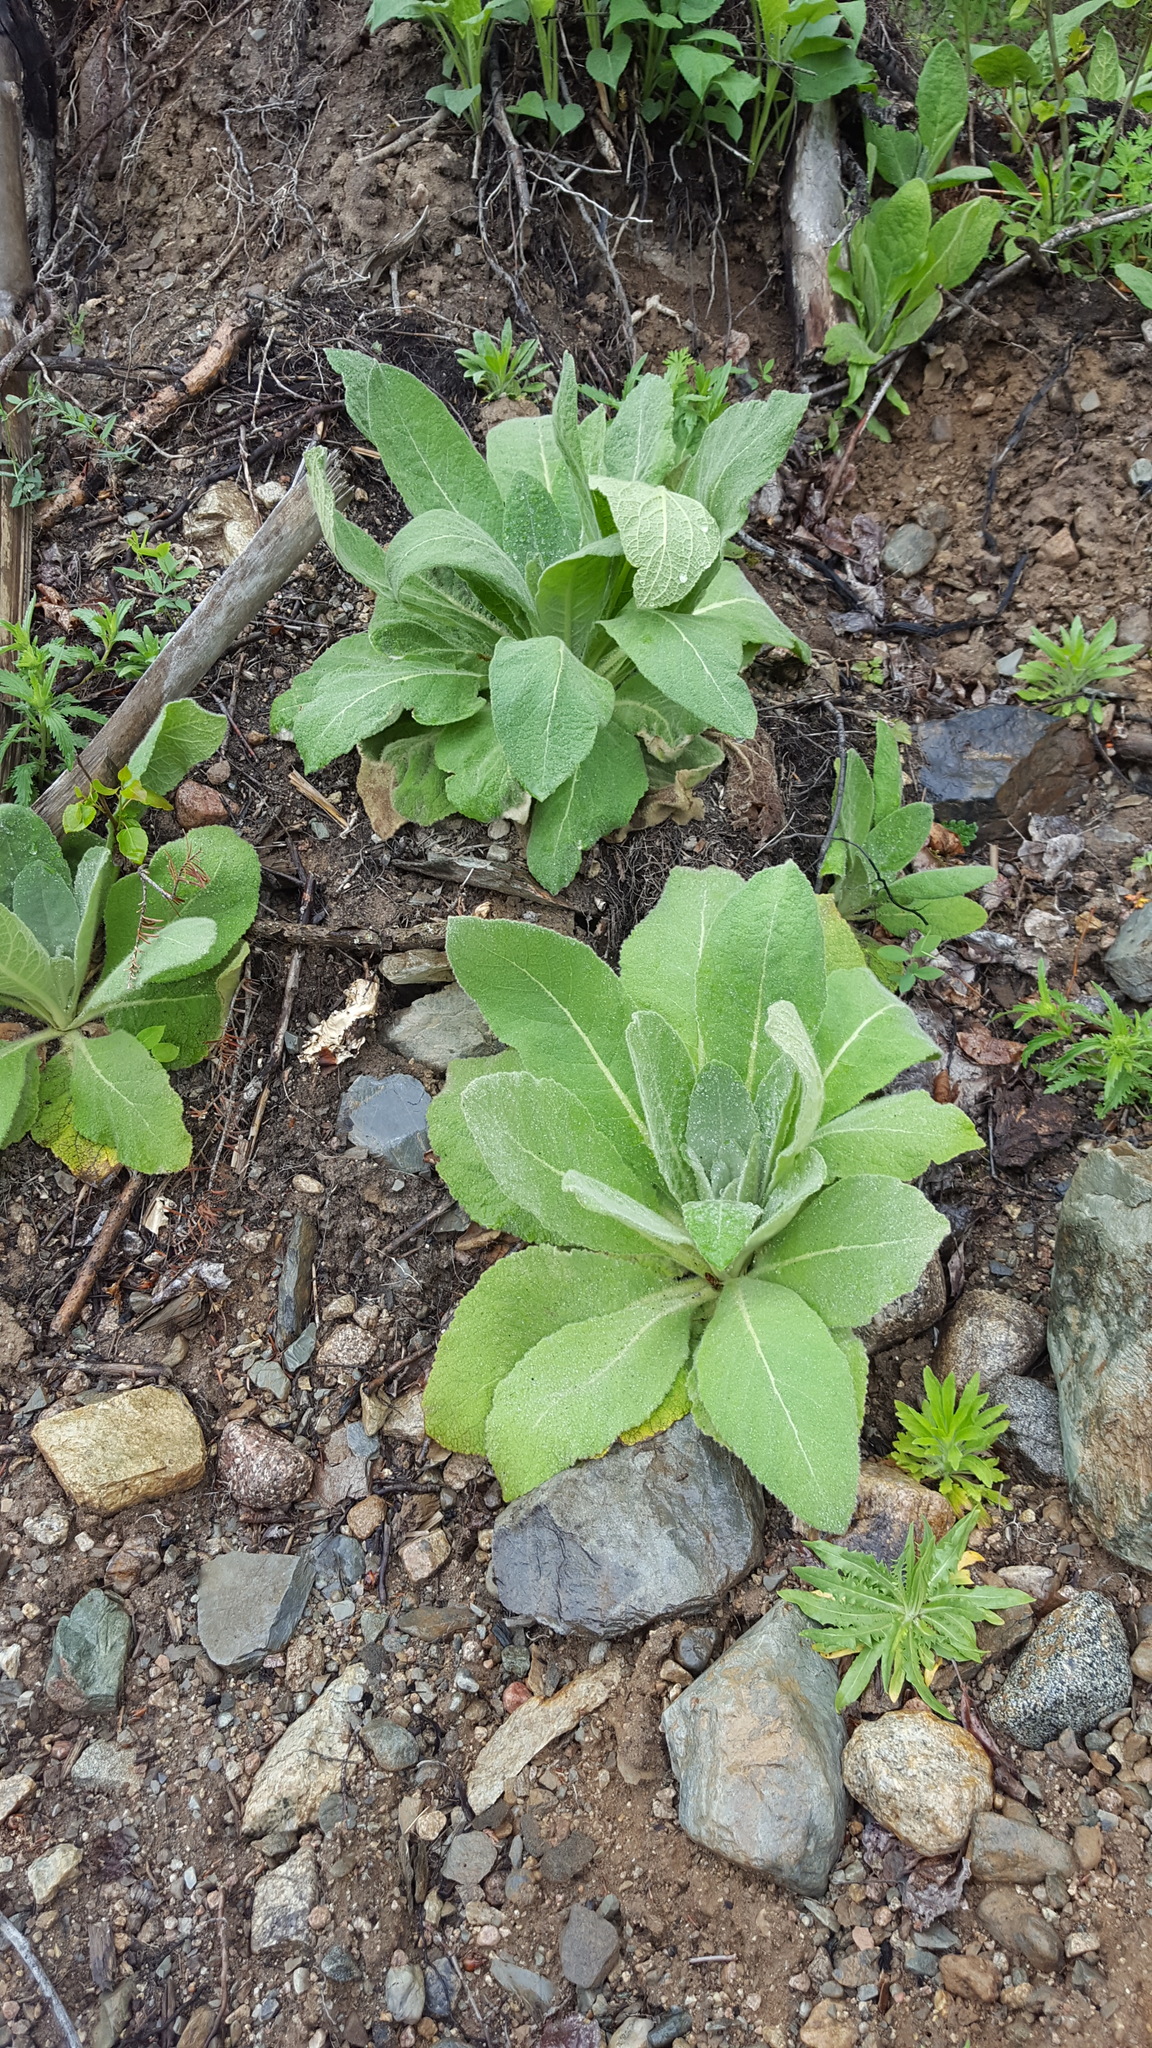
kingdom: Plantae
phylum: Tracheophyta
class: Magnoliopsida
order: Lamiales
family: Scrophulariaceae
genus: Verbascum
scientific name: Verbascum thapsus
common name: Common mullein
